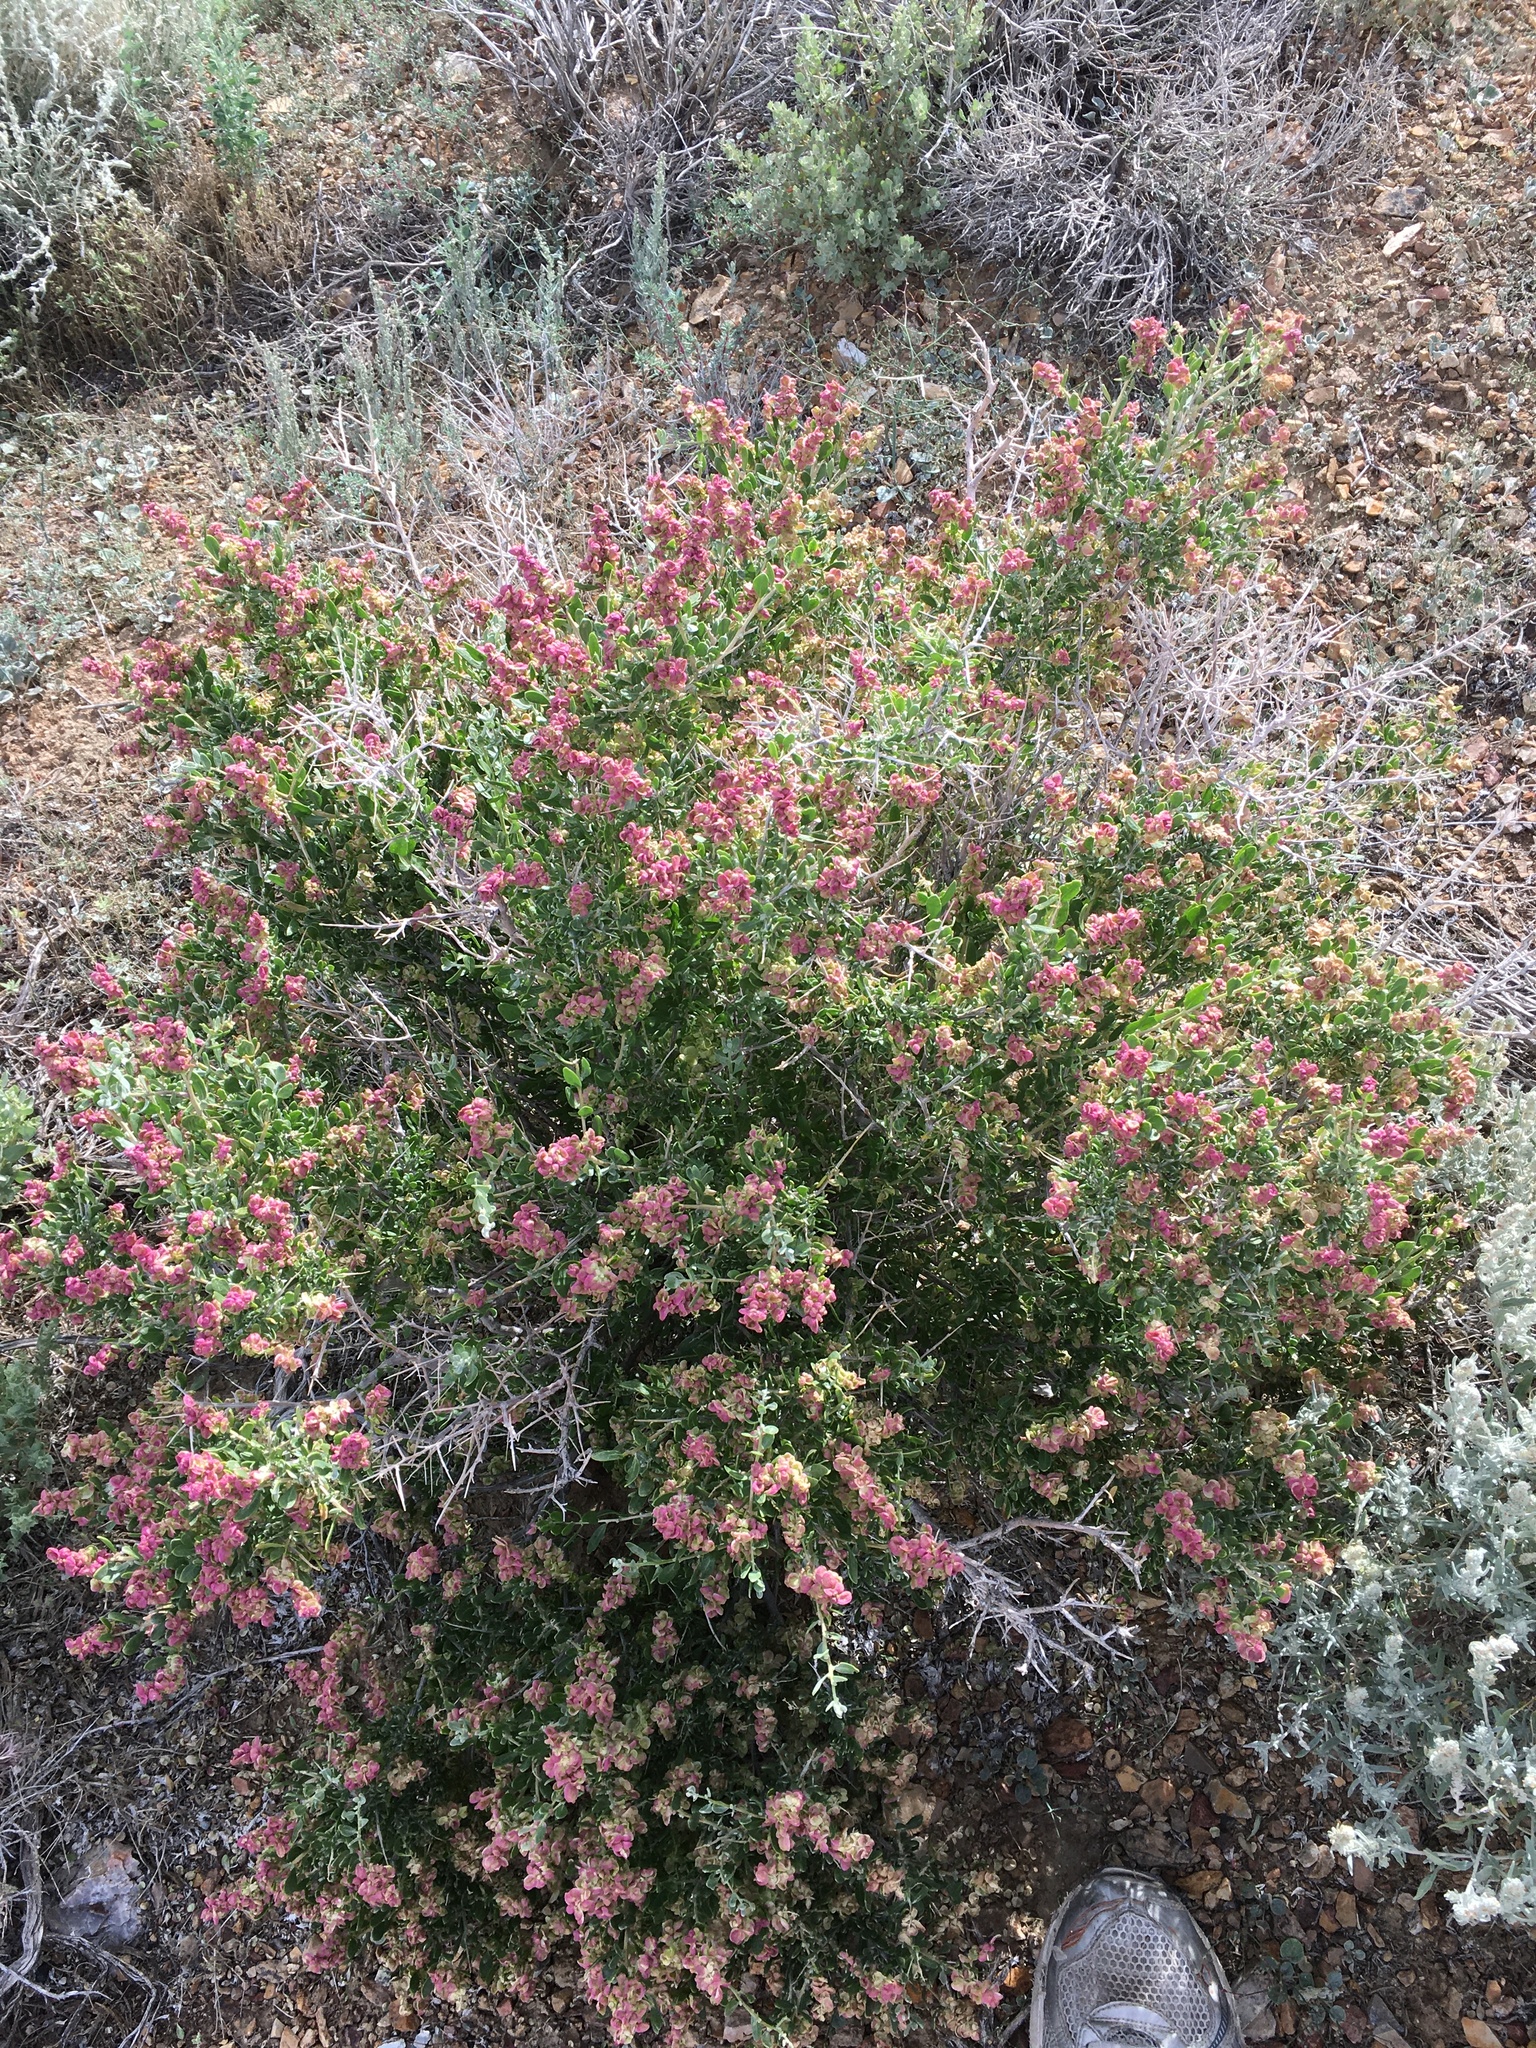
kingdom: Plantae
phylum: Tracheophyta
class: Magnoliopsida
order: Caryophyllales
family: Amaranthaceae
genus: Grayia
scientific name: Grayia spinosa
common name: Spiny hopsage
